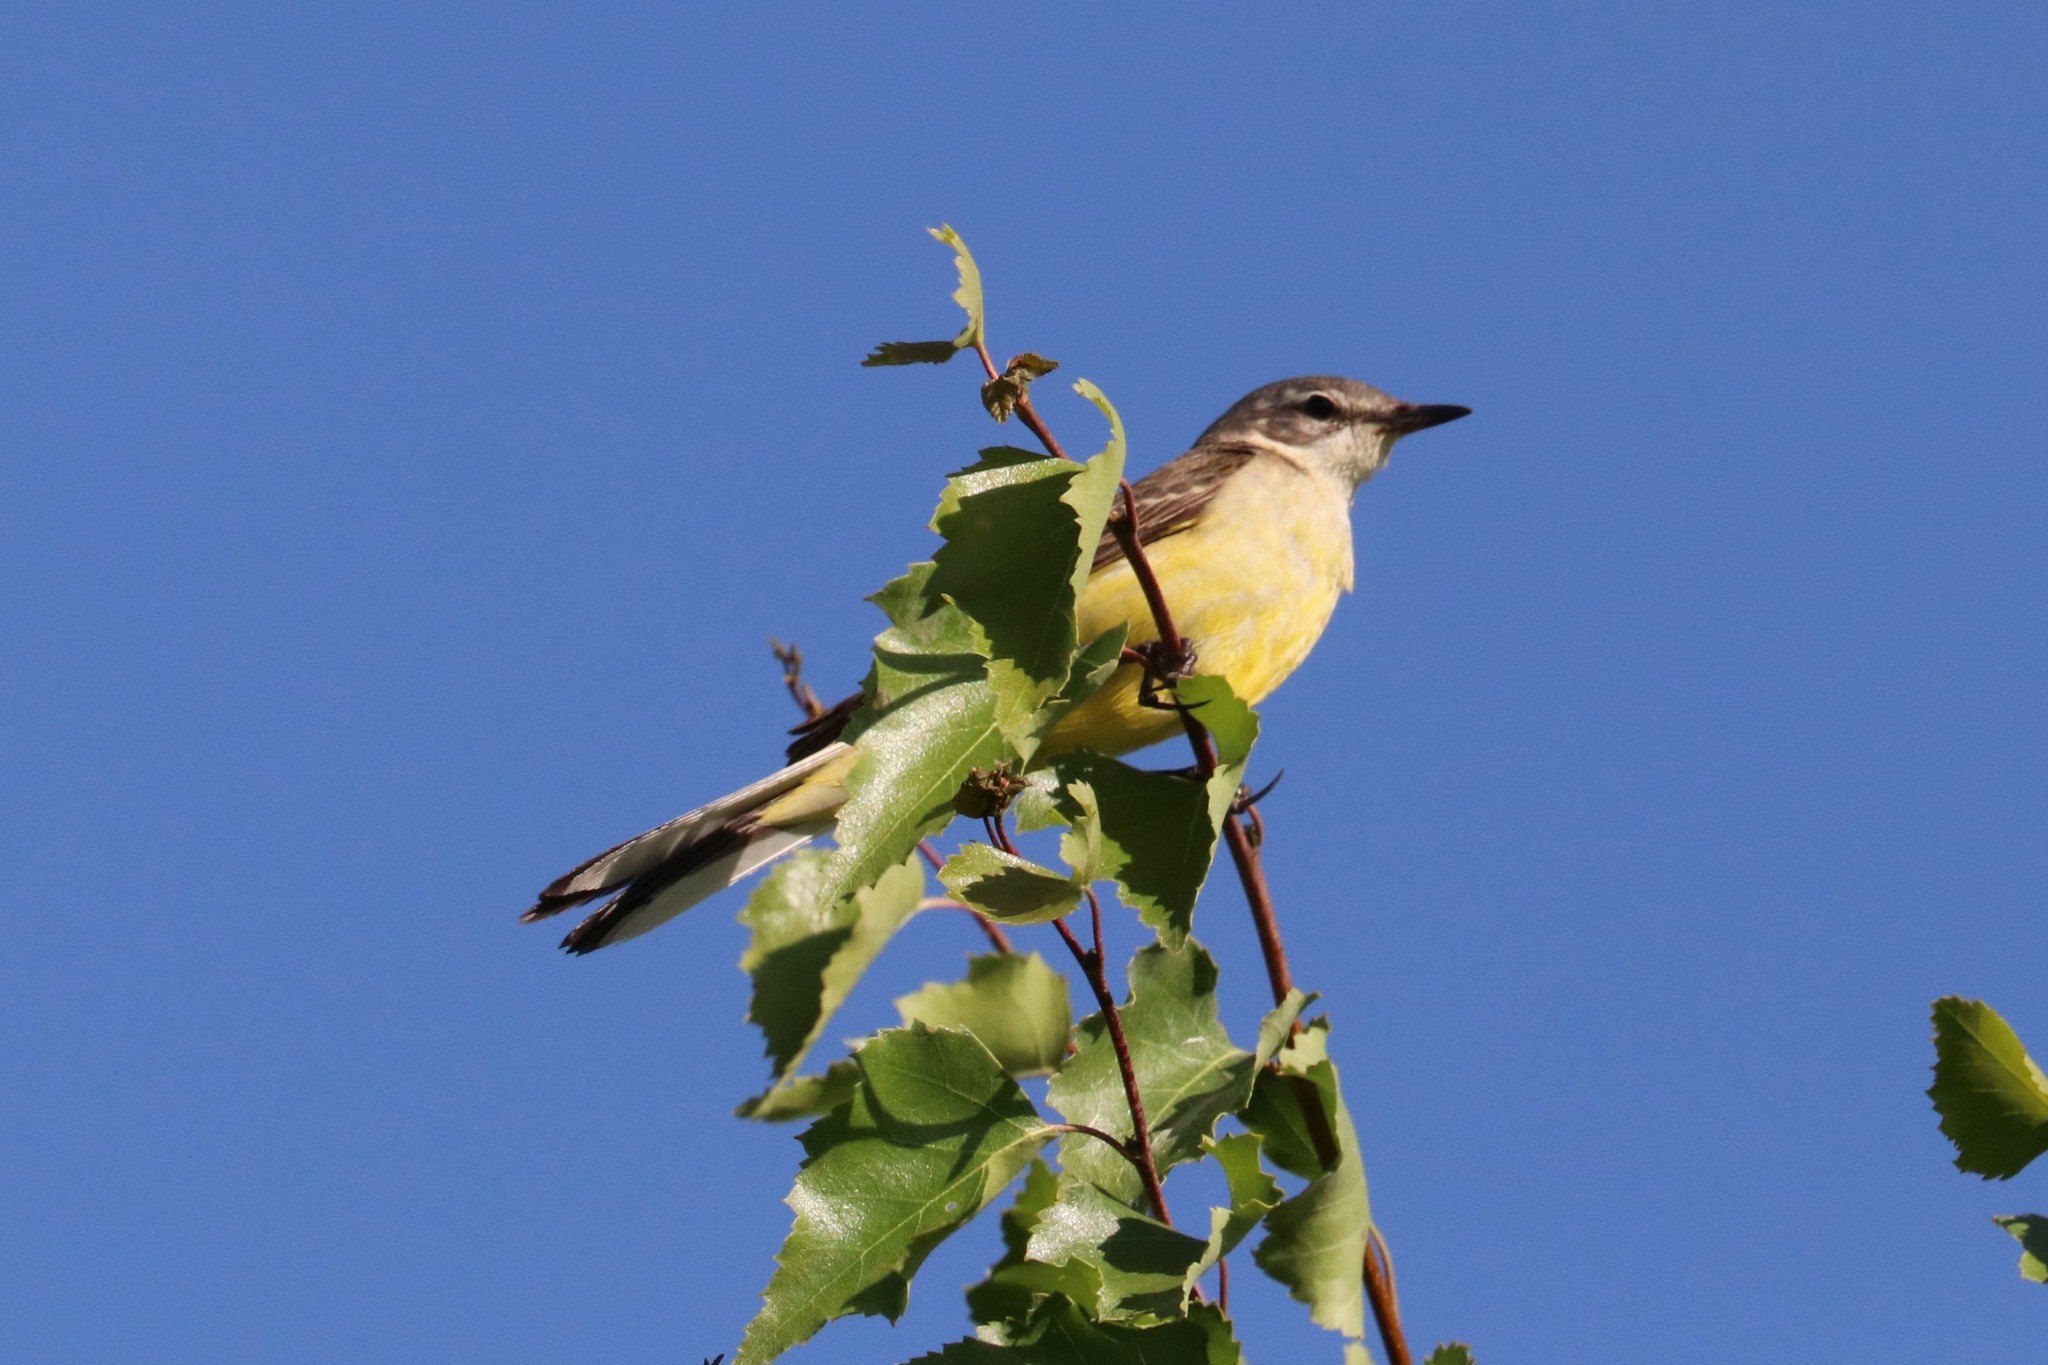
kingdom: Animalia
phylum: Chordata
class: Aves
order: Passeriformes
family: Motacillidae
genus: Motacilla
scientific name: Motacilla flava
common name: Western yellow wagtail
